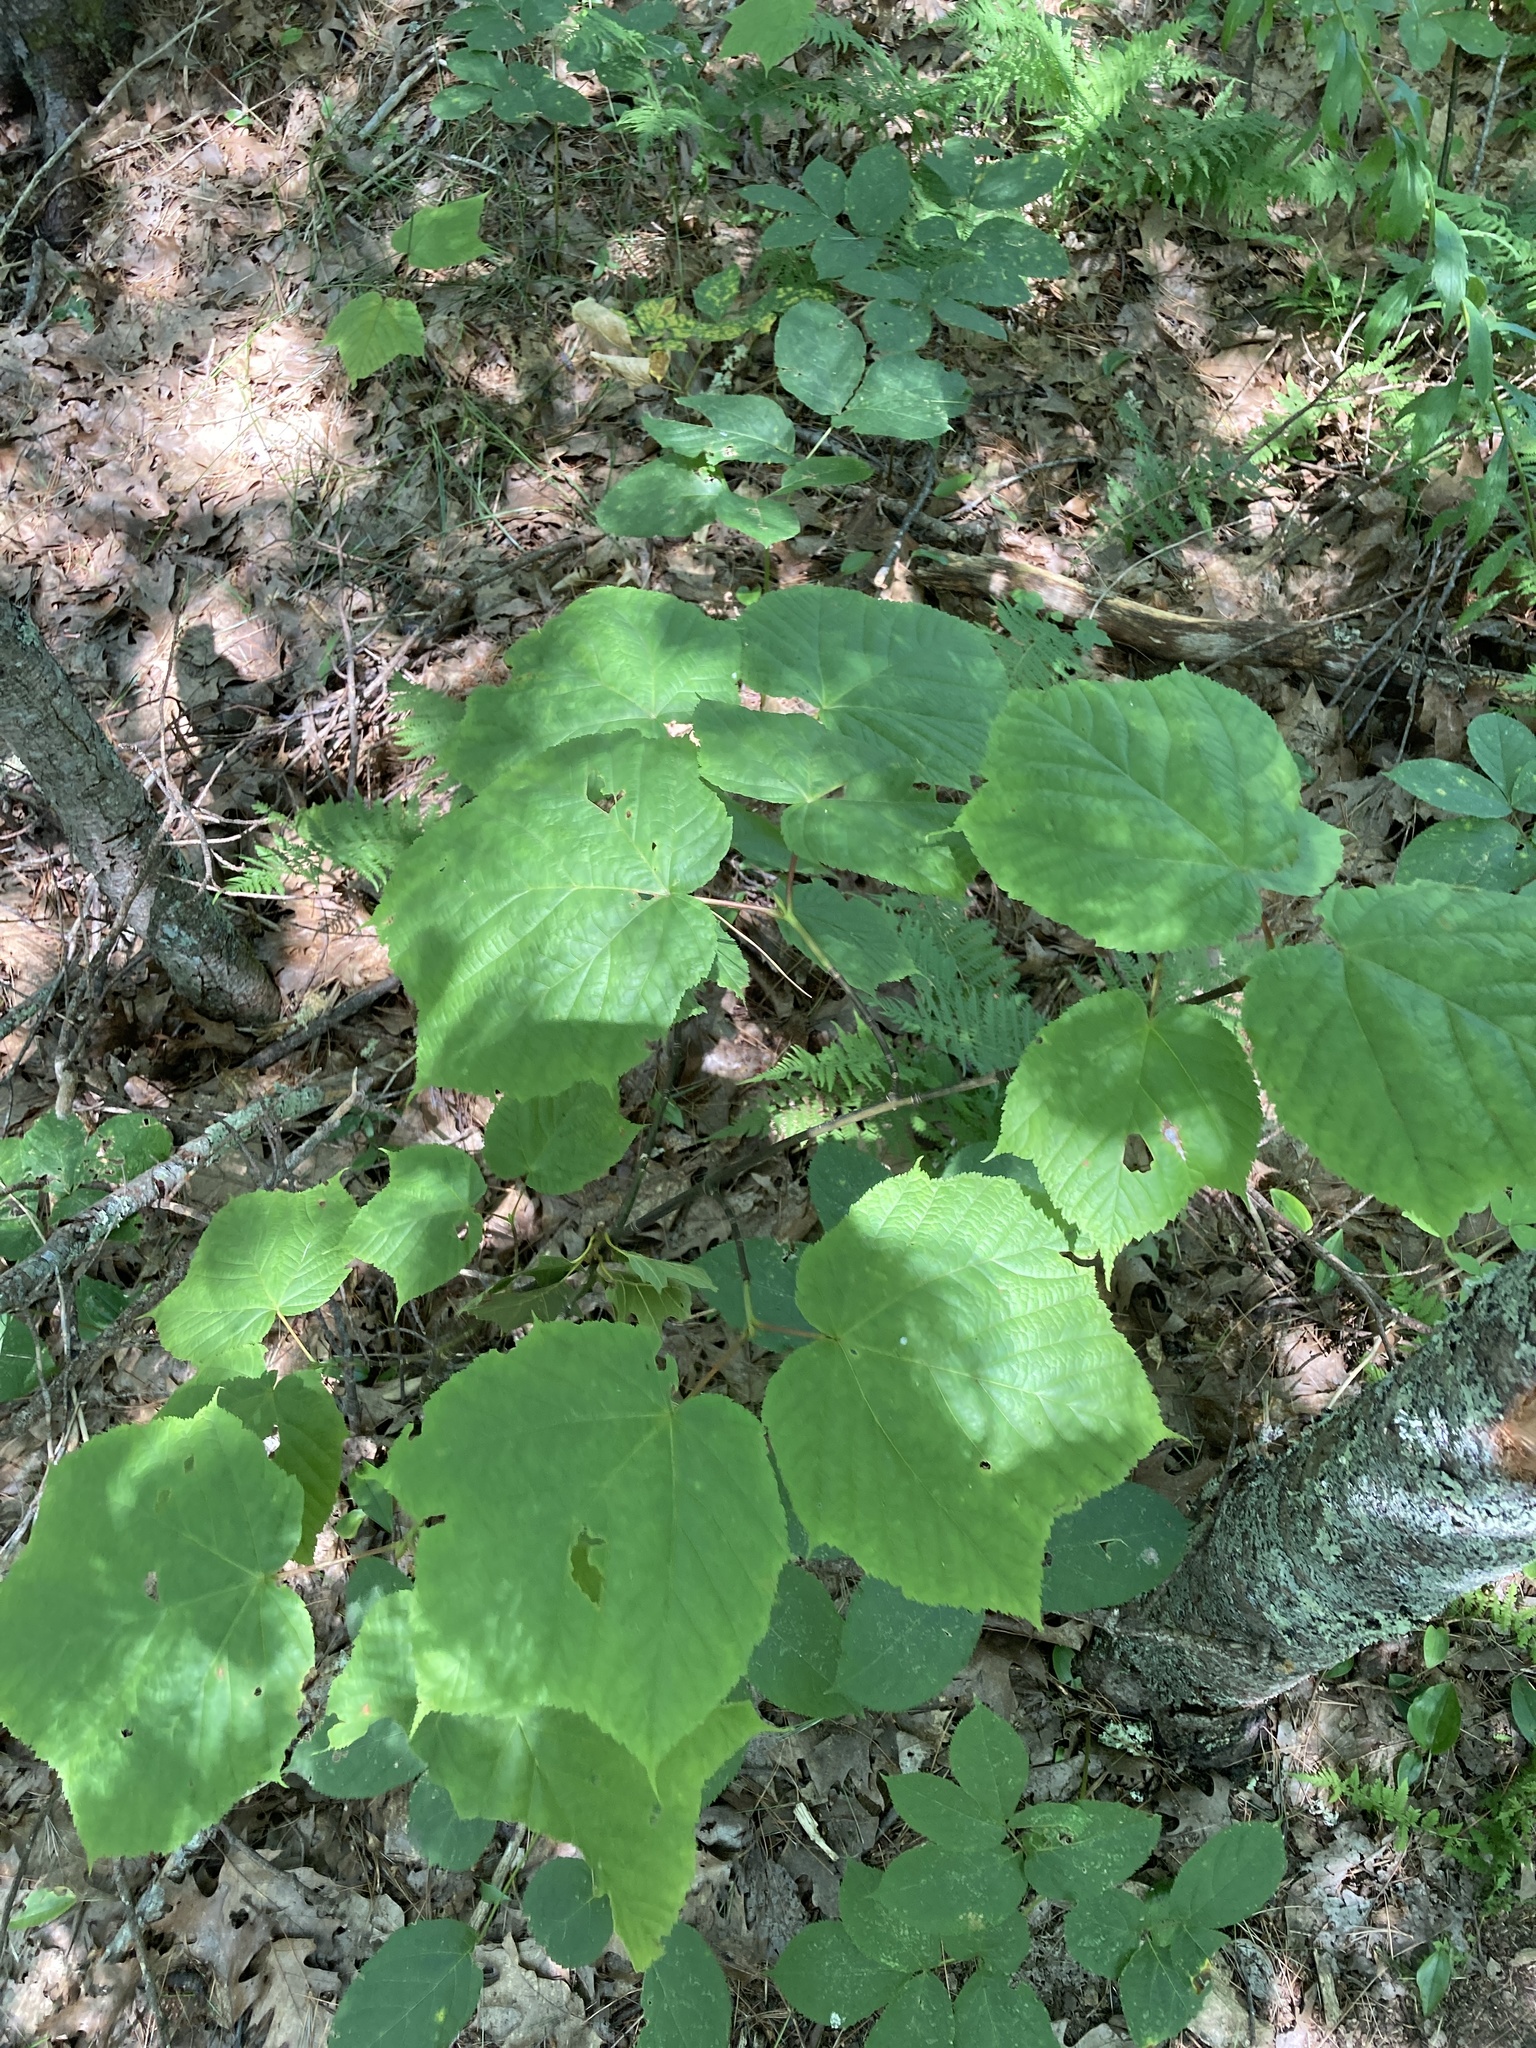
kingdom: Plantae
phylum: Tracheophyta
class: Magnoliopsida
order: Sapindales
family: Sapindaceae
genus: Acer
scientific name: Acer pensylvanicum
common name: Moosewood
